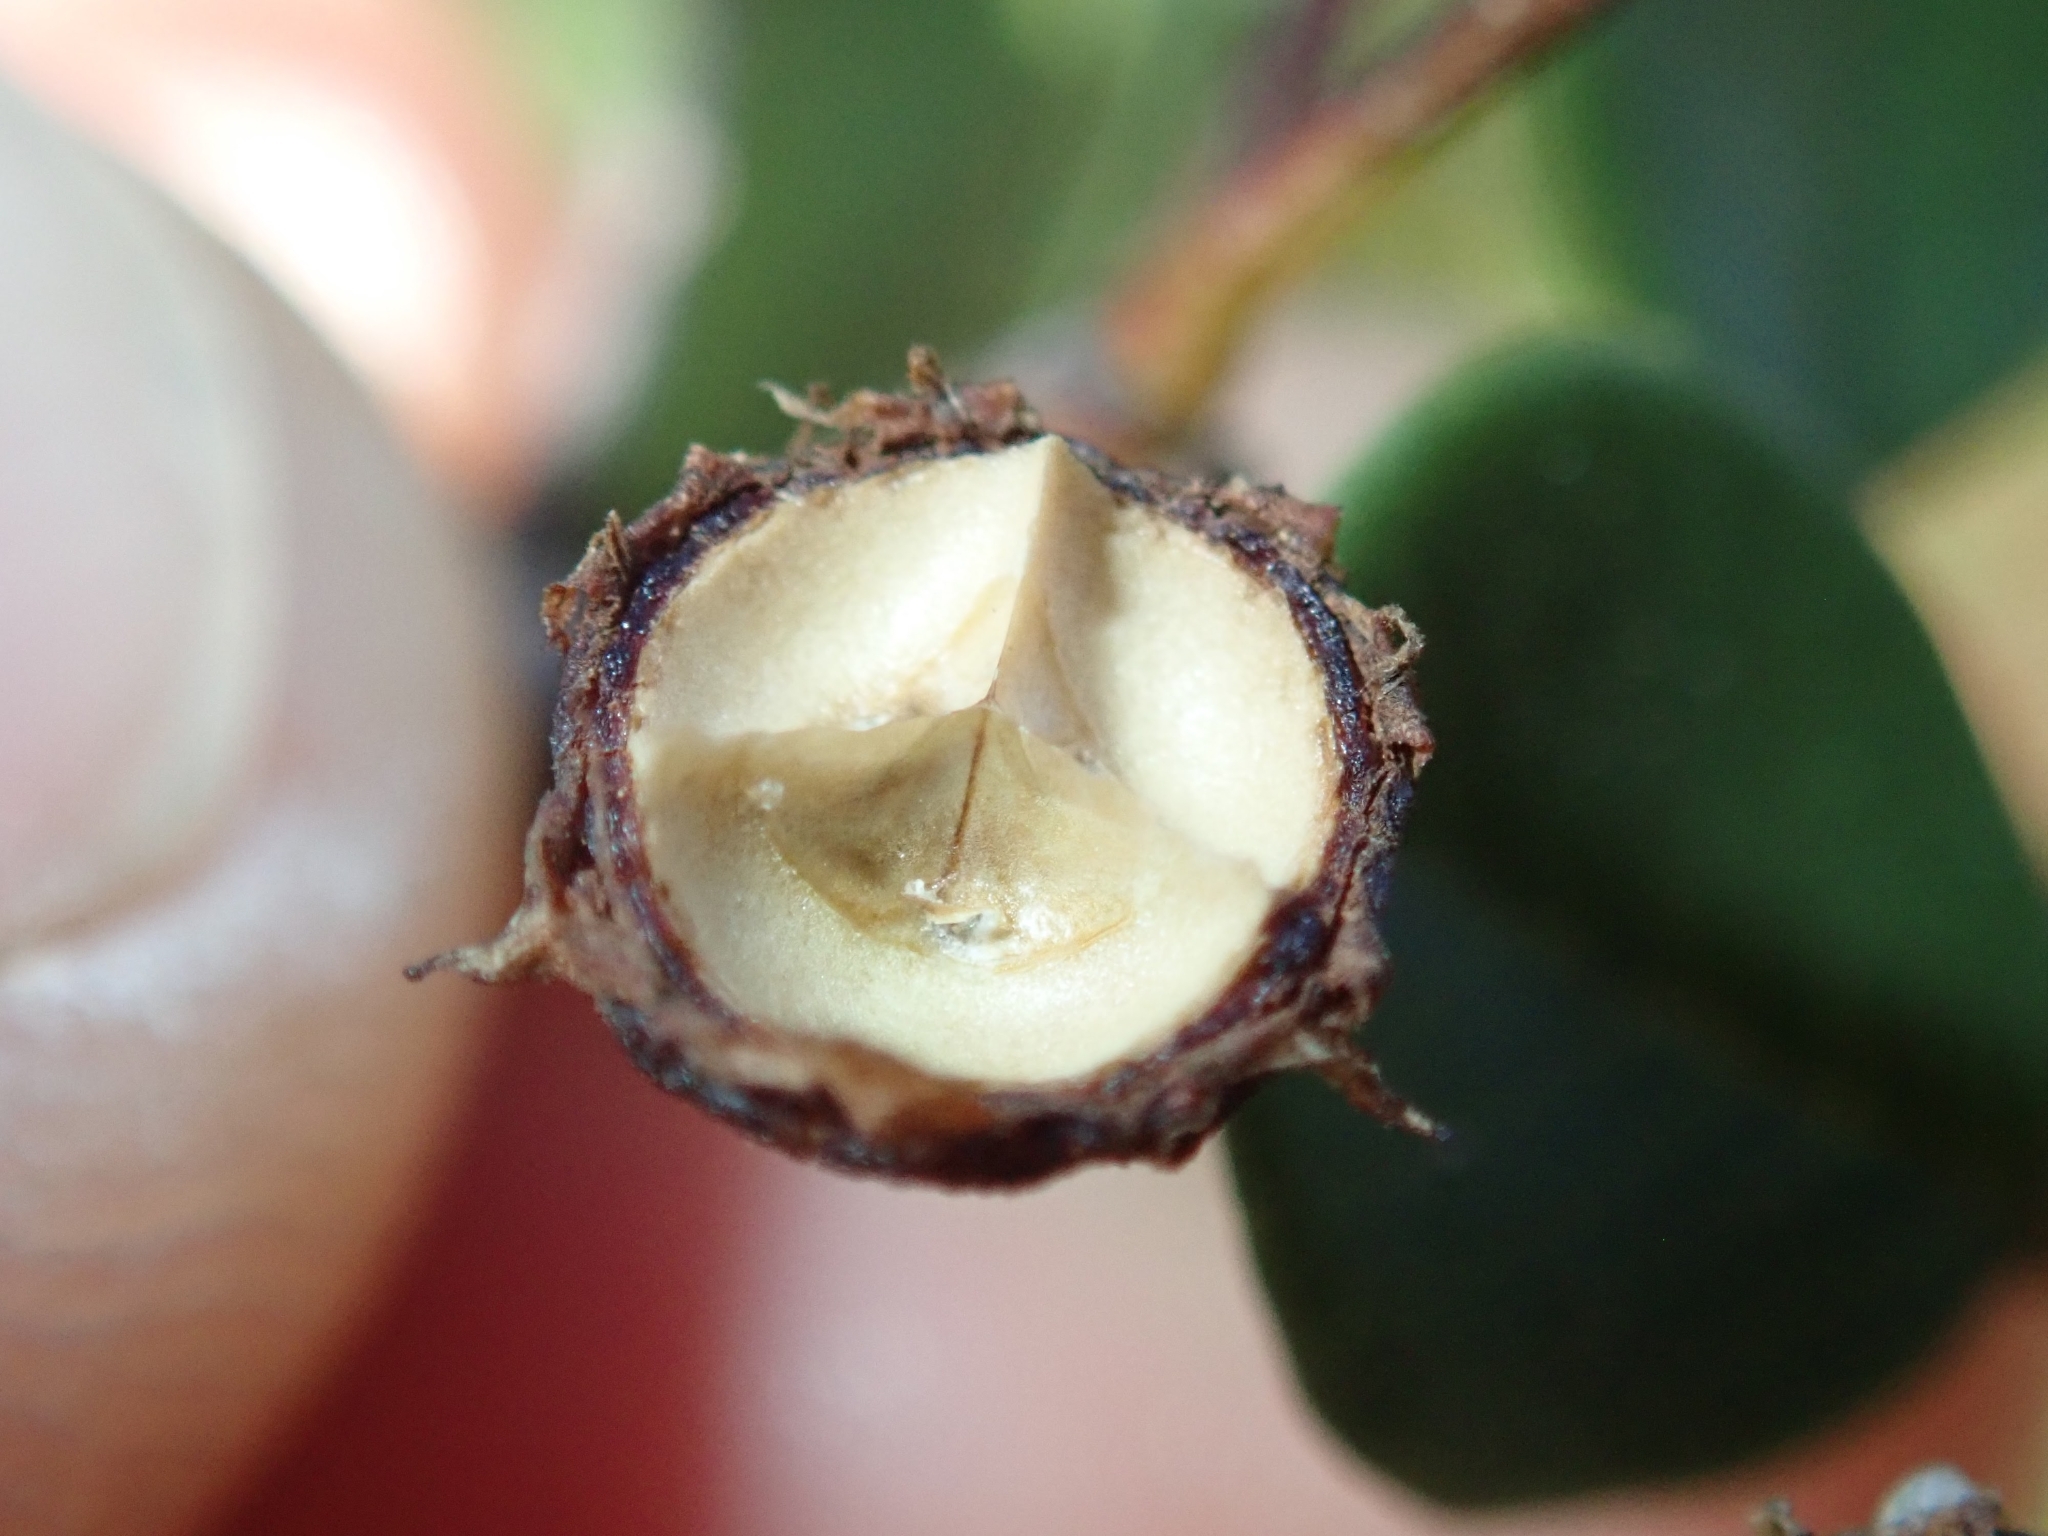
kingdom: Plantae
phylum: Tracheophyta
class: Magnoliopsida
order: Rosales
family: Rhamnaceae
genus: Ceanothus
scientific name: Ceanothus verrucosus
